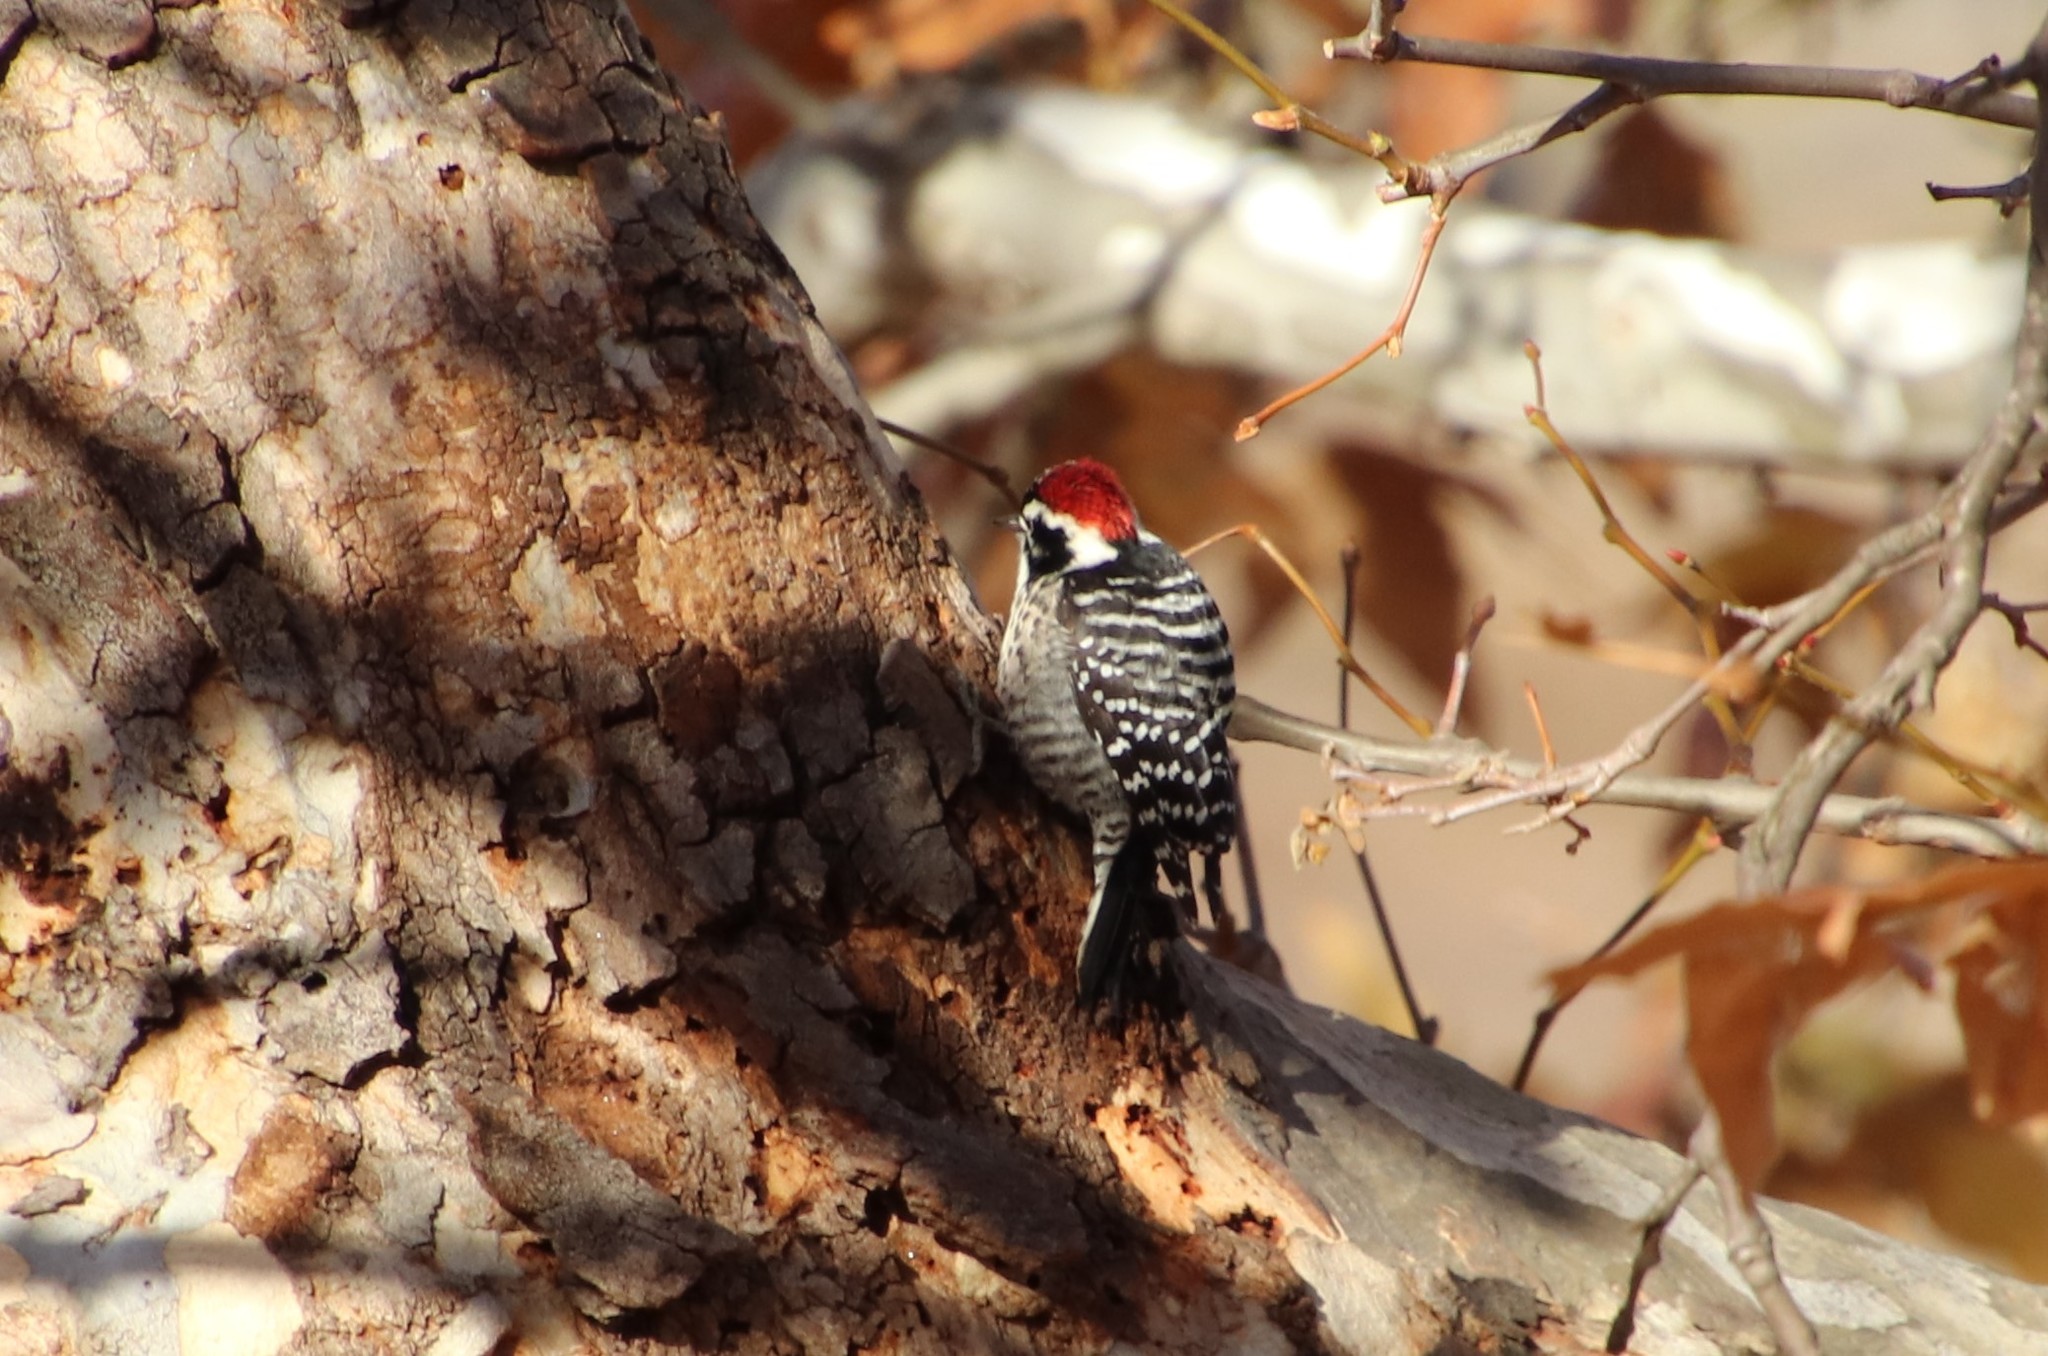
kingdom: Animalia
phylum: Chordata
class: Aves
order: Piciformes
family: Picidae
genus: Dryobates
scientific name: Dryobates nuttallii
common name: Nuttall's woodpecker
